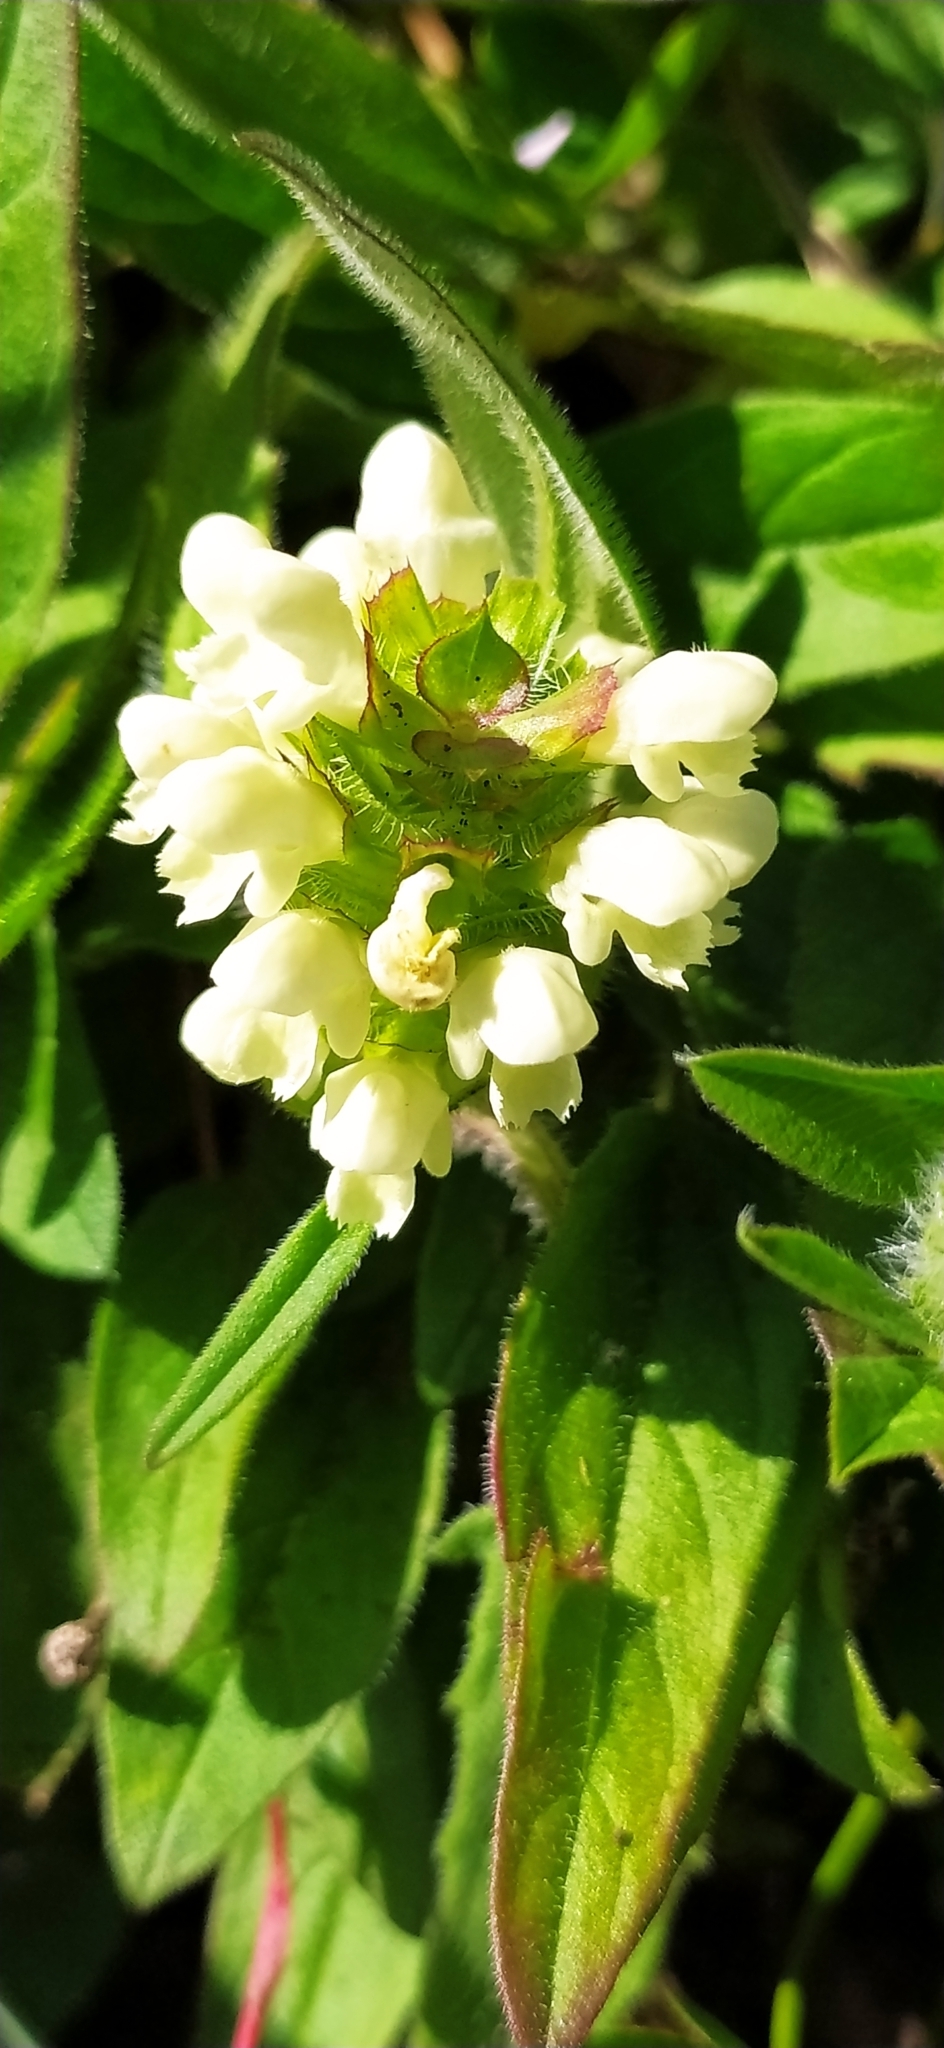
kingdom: Plantae
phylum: Tracheophyta
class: Magnoliopsida
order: Lamiales
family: Lamiaceae
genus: Prunella
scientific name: Prunella laciniata
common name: Cut-leaved selfheal
